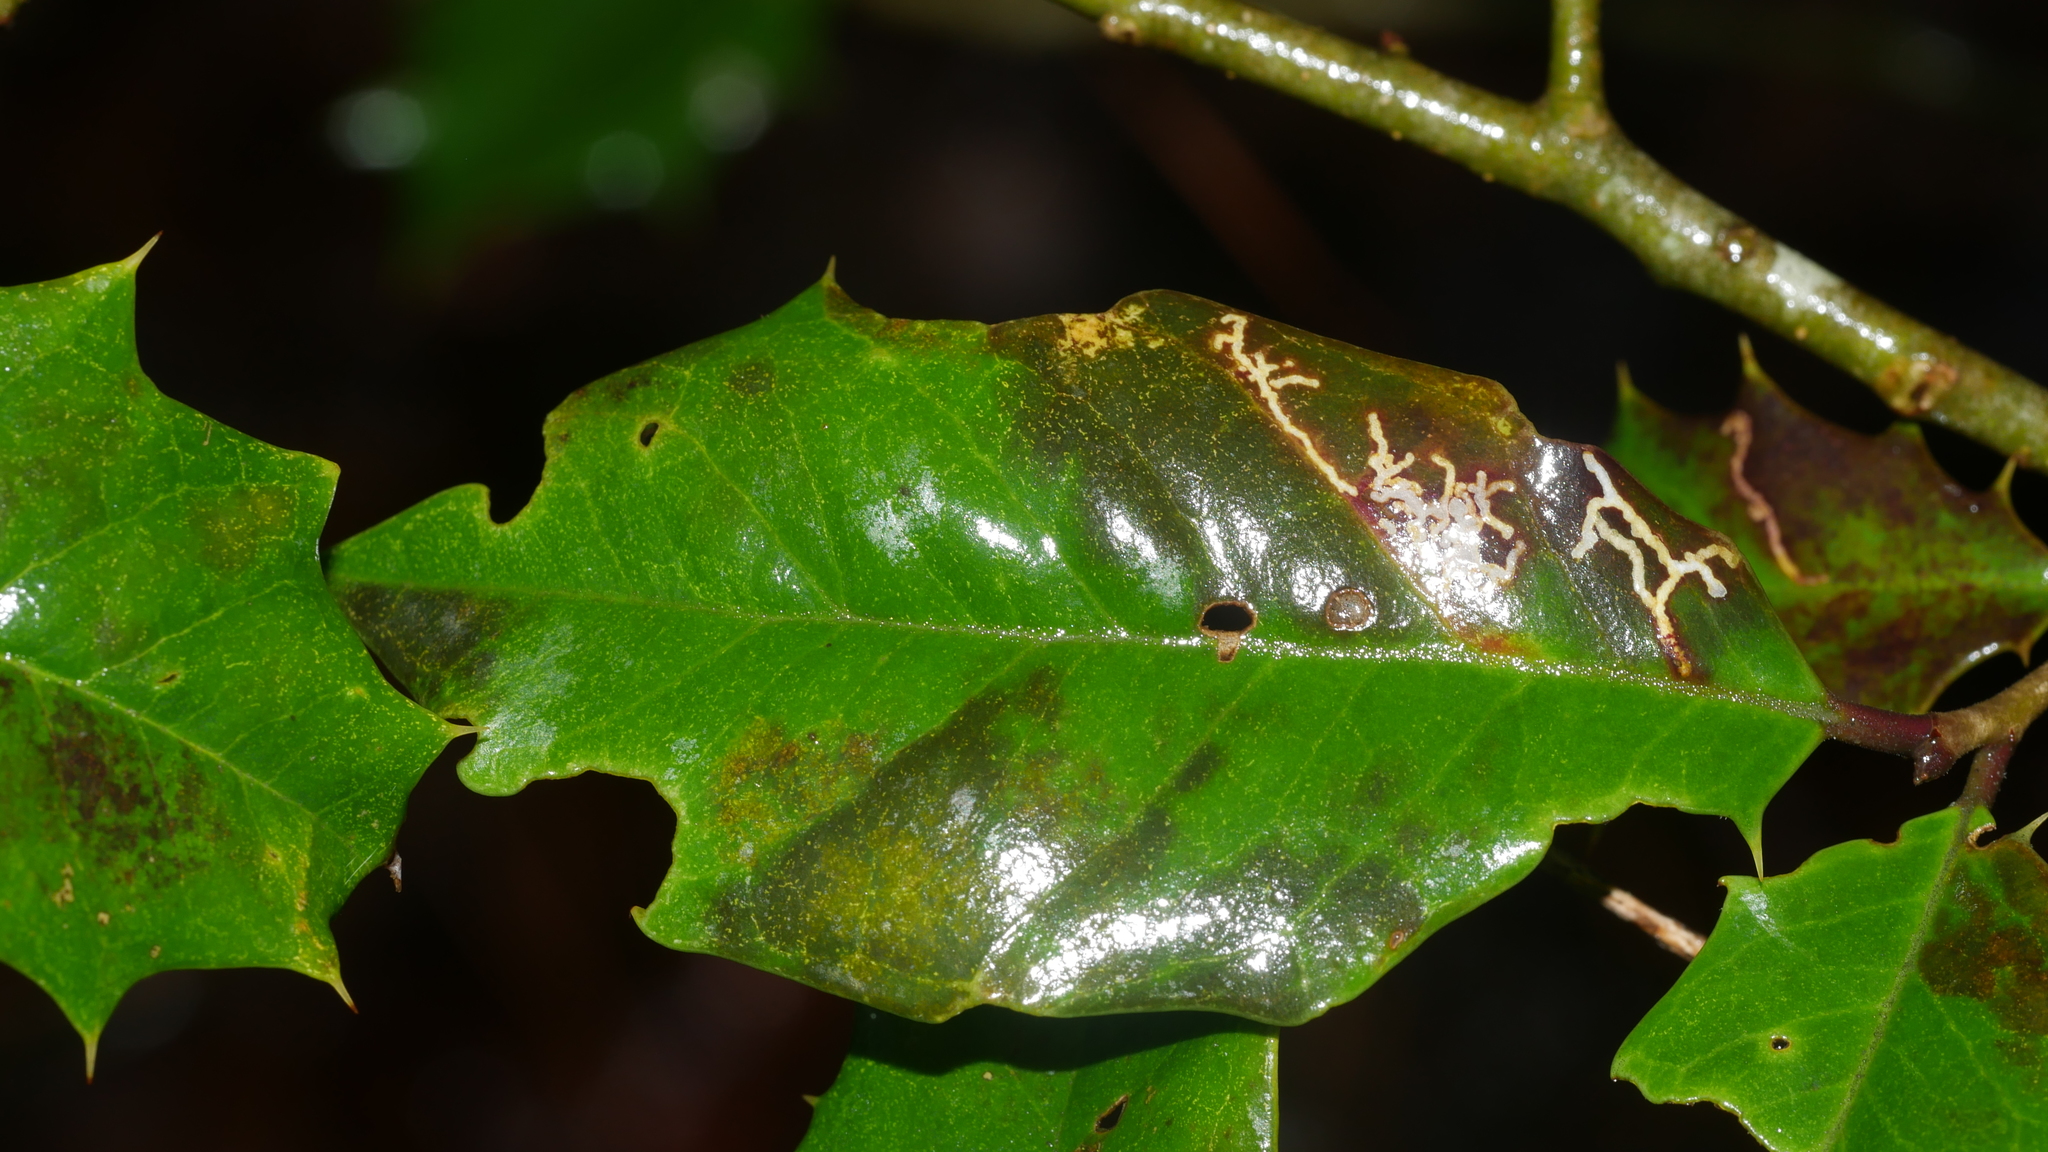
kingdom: Animalia
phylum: Arthropoda
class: Insecta
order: Lepidoptera
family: Tortricidae
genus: Rhopobota
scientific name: Rhopobota
